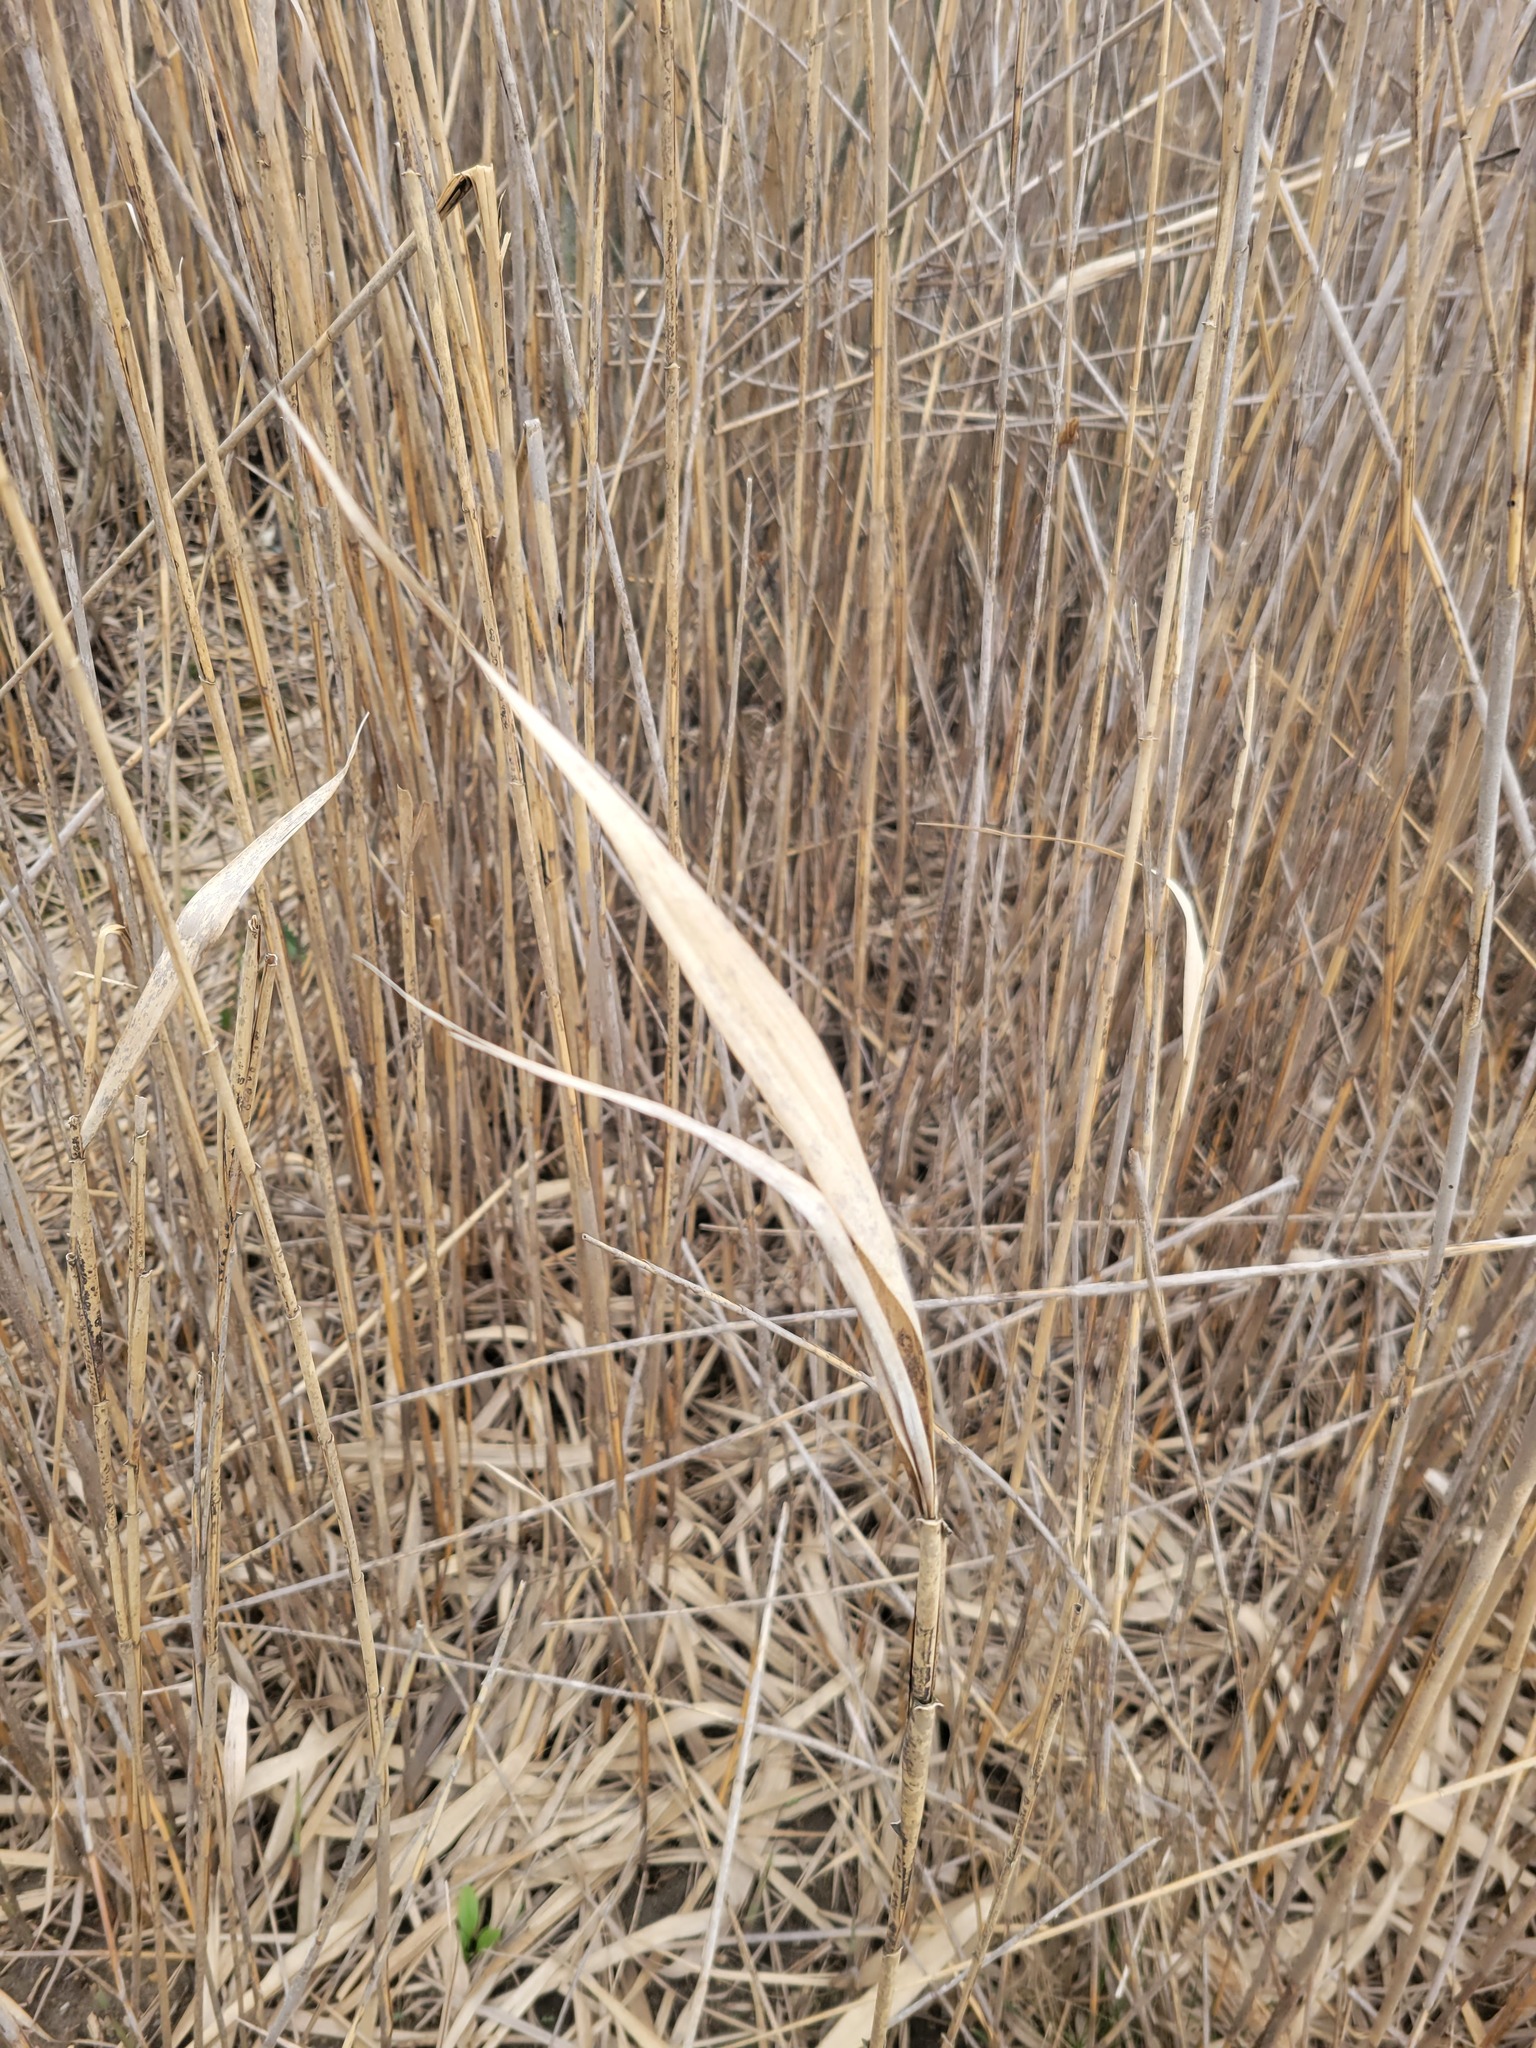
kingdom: Plantae
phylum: Tracheophyta
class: Liliopsida
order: Poales
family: Poaceae
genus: Phragmites
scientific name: Phragmites australis
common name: Common reed
